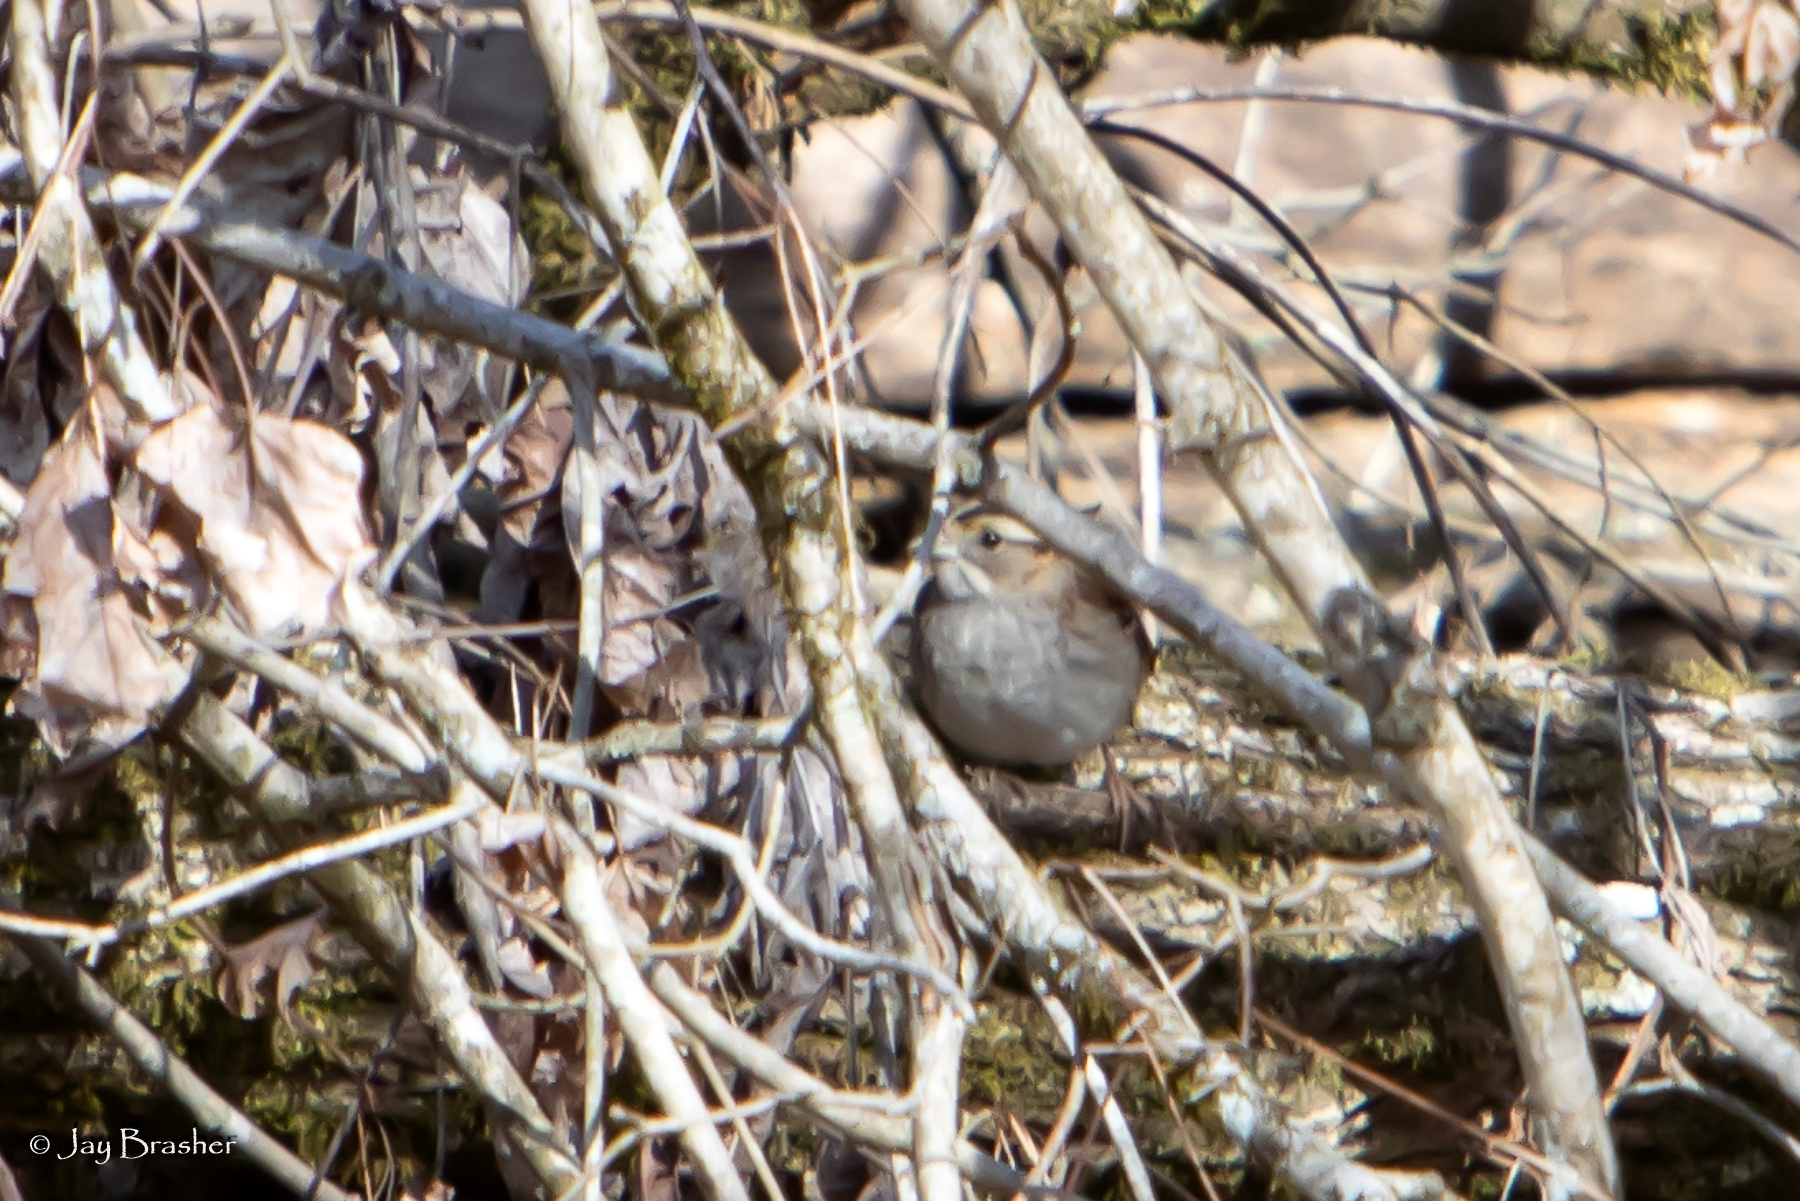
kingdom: Animalia
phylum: Chordata
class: Aves
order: Passeriformes
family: Passerellidae
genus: Zonotrichia
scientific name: Zonotrichia albicollis
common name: White-throated sparrow
